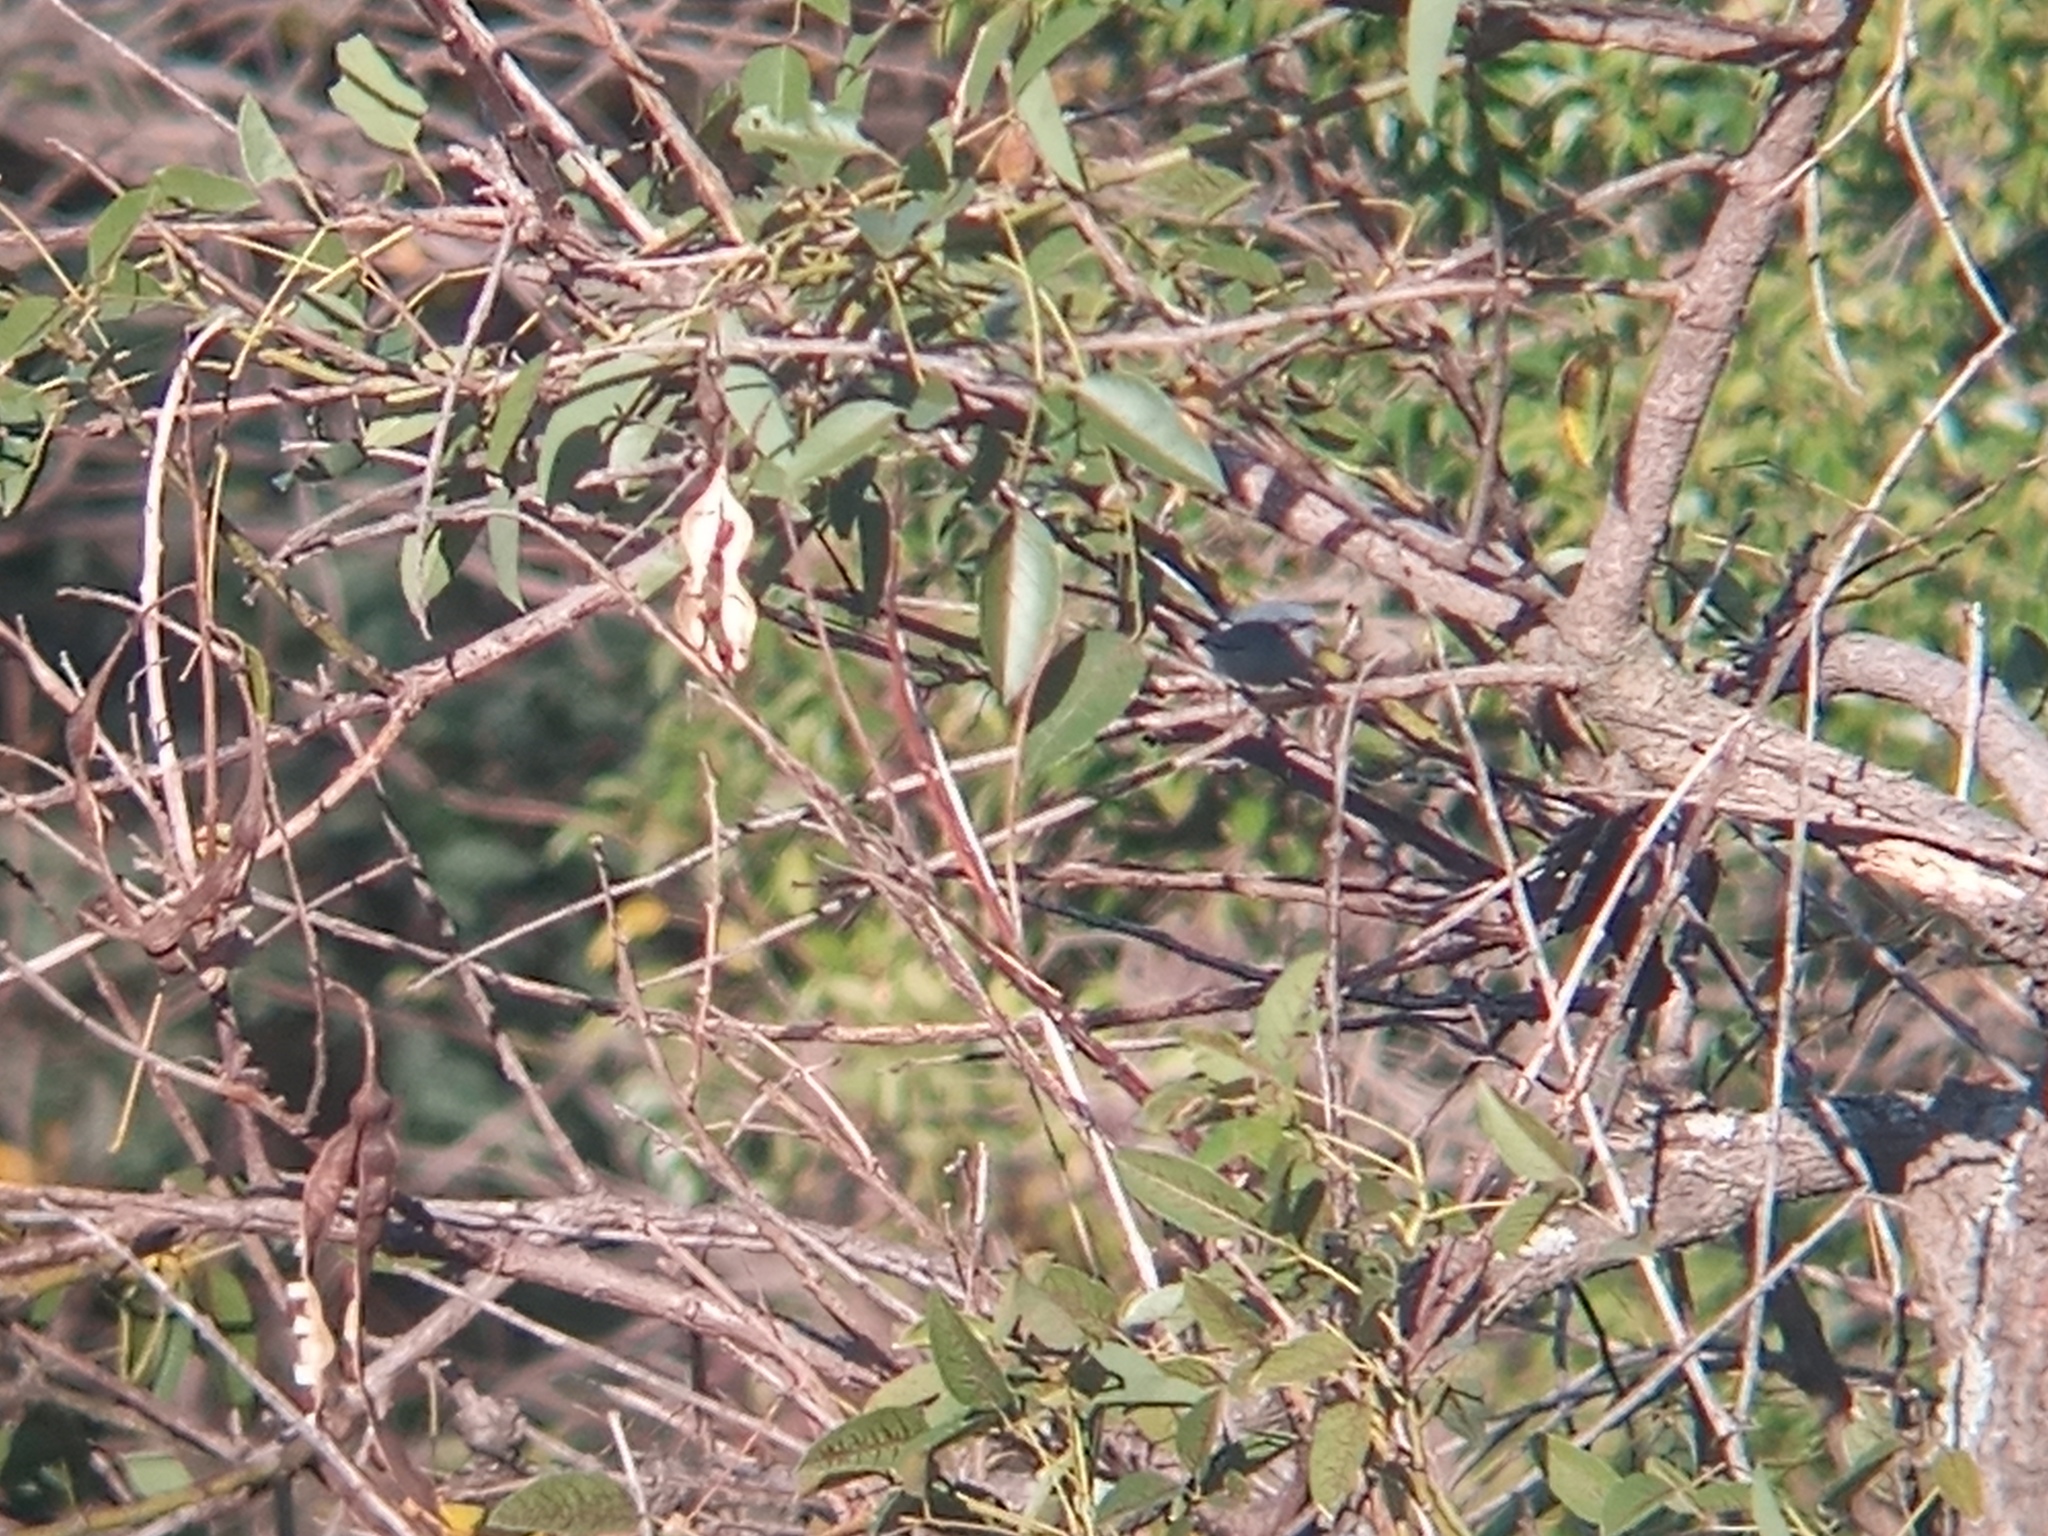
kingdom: Animalia
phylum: Chordata
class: Aves
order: Passeriformes
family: Polioptilidae
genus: Polioptila
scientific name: Polioptila dumicola
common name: Masked gnatcatcher
